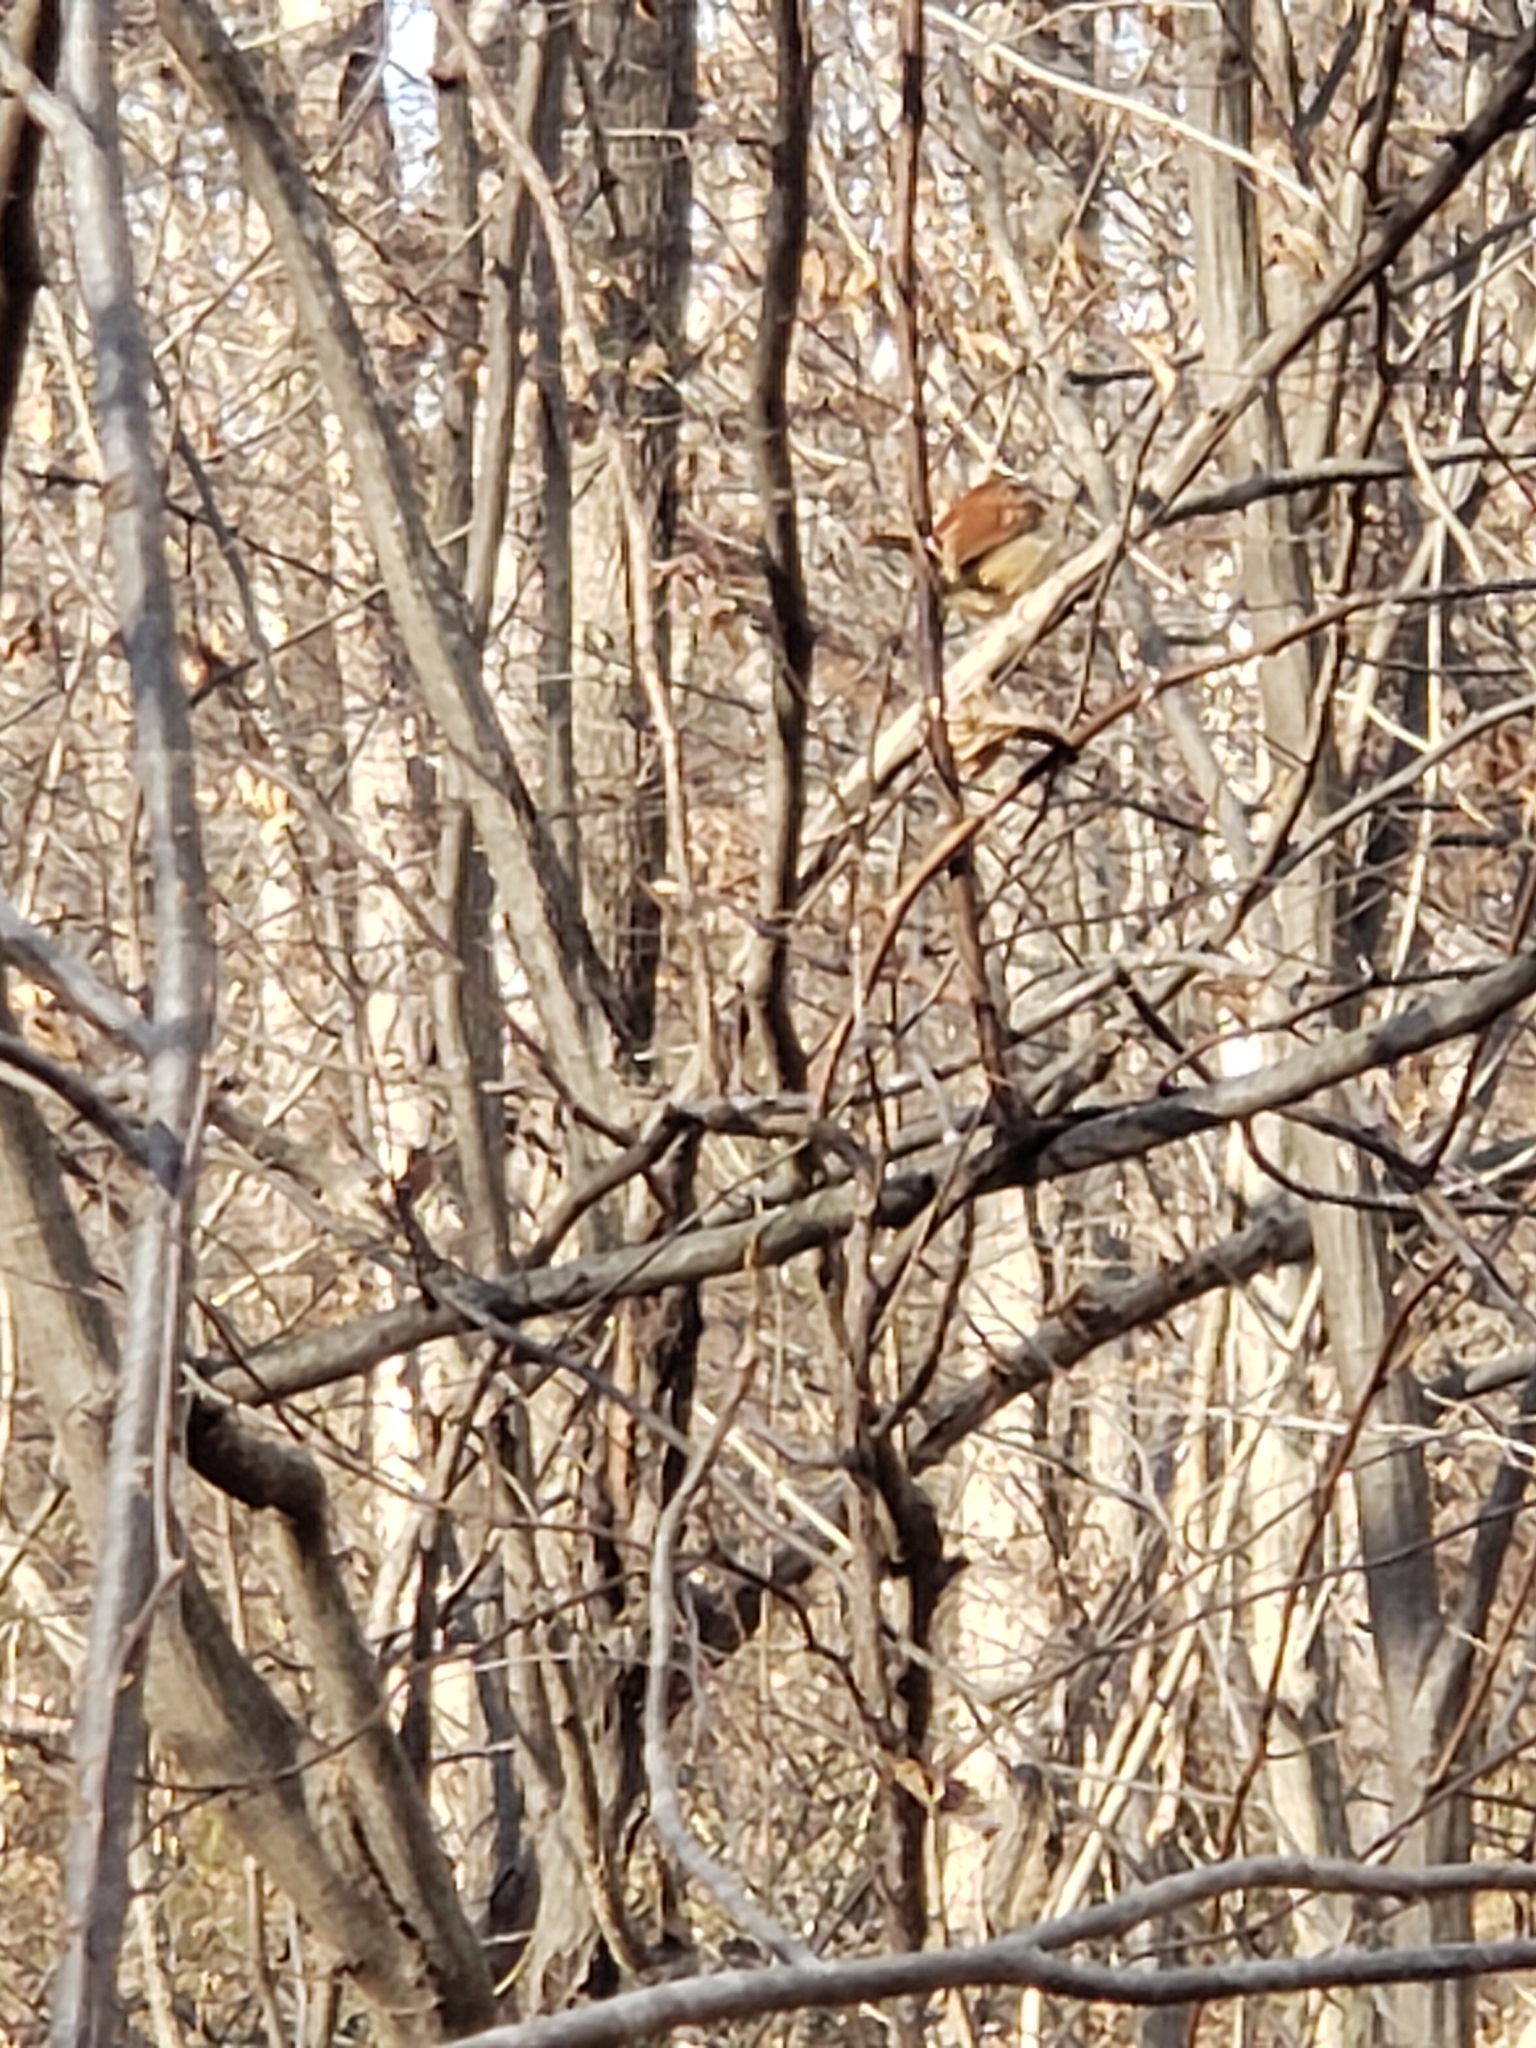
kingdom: Animalia
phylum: Chordata
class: Aves
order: Passeriformes
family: Troglodytidae
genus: Thryothorus
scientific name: Thryothorus ludovicianus
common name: Carolina wren
